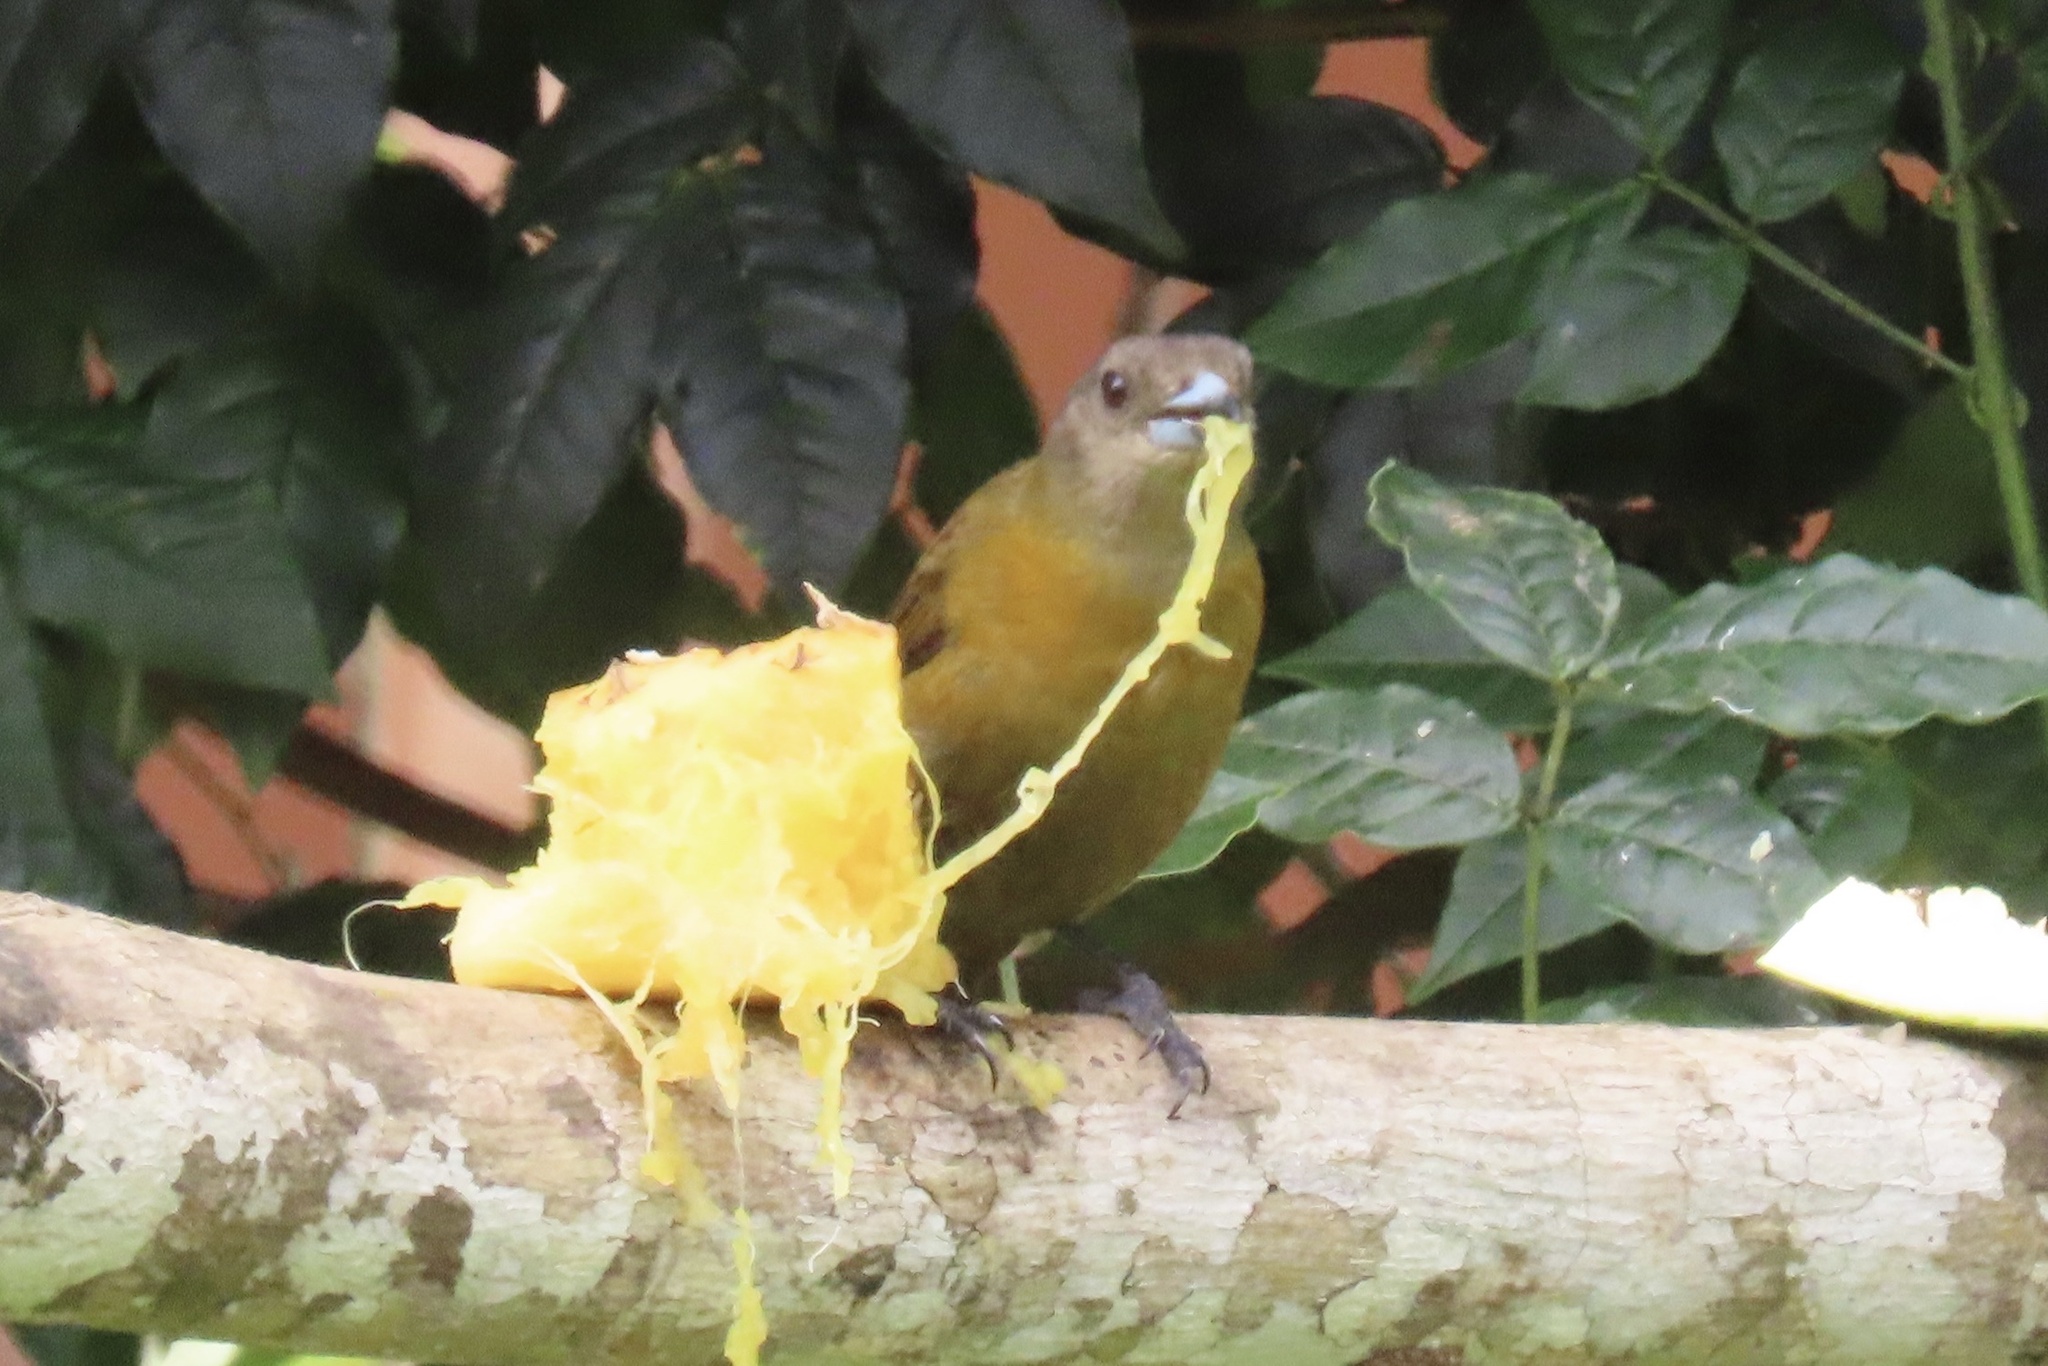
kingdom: Animalia
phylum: Chordata
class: Aves
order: Passeriformes
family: Thraupidae
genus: Ramphocelus
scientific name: Ramphocelus passerinii
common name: Passerini's tanager
